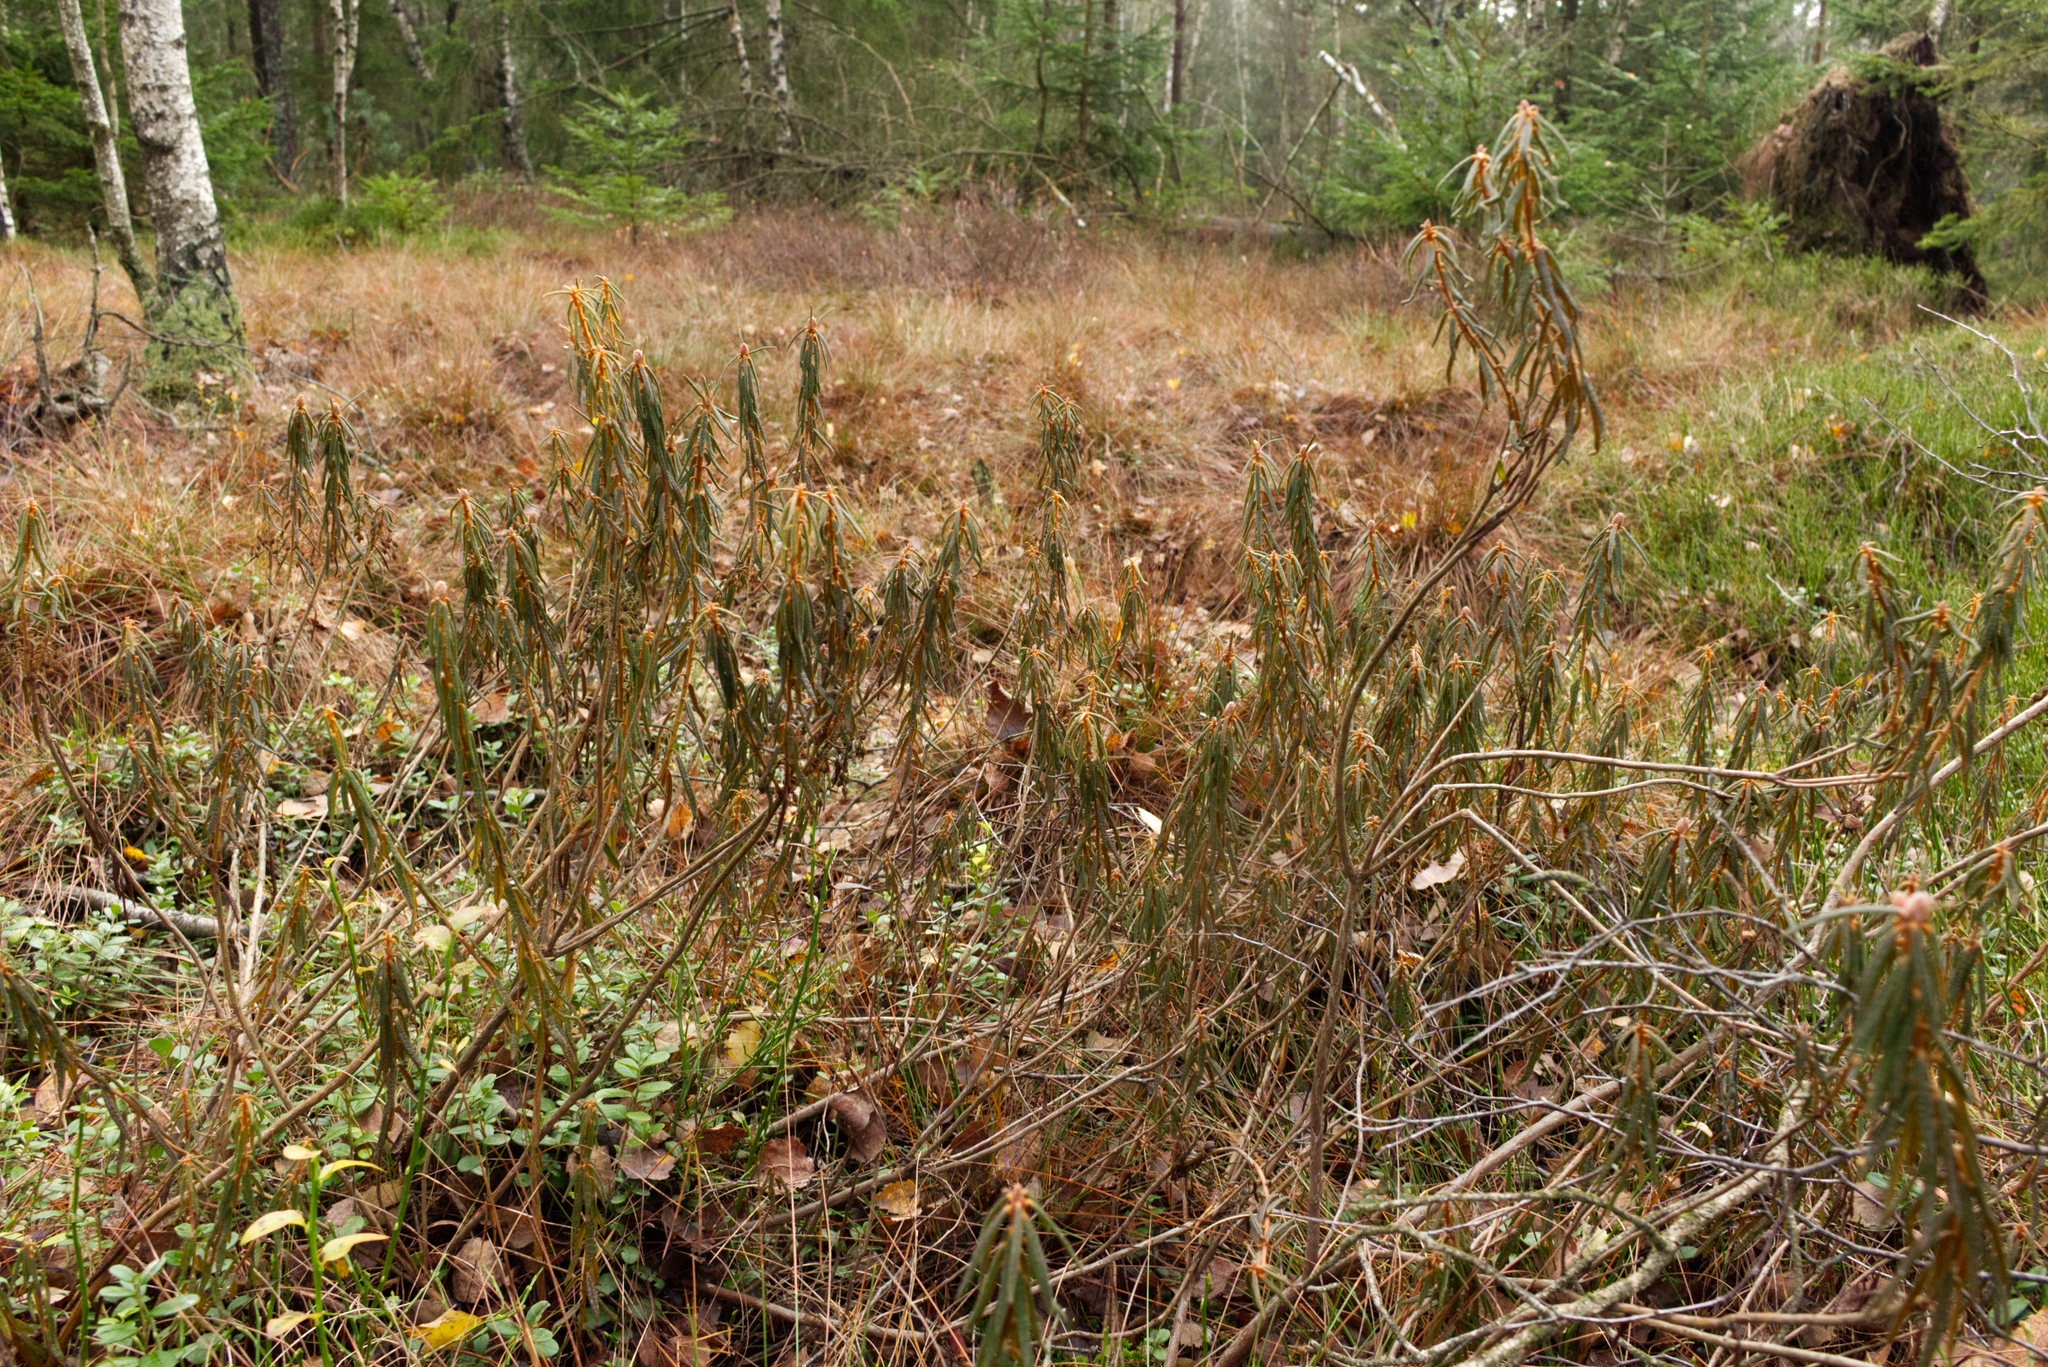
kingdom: Plantae
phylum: Tracheophyta
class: Magnoliopsida
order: Ericales
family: Ericaceae
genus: Rhododendron
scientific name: Rhododendron tomentosum
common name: Marsh labrador tea
